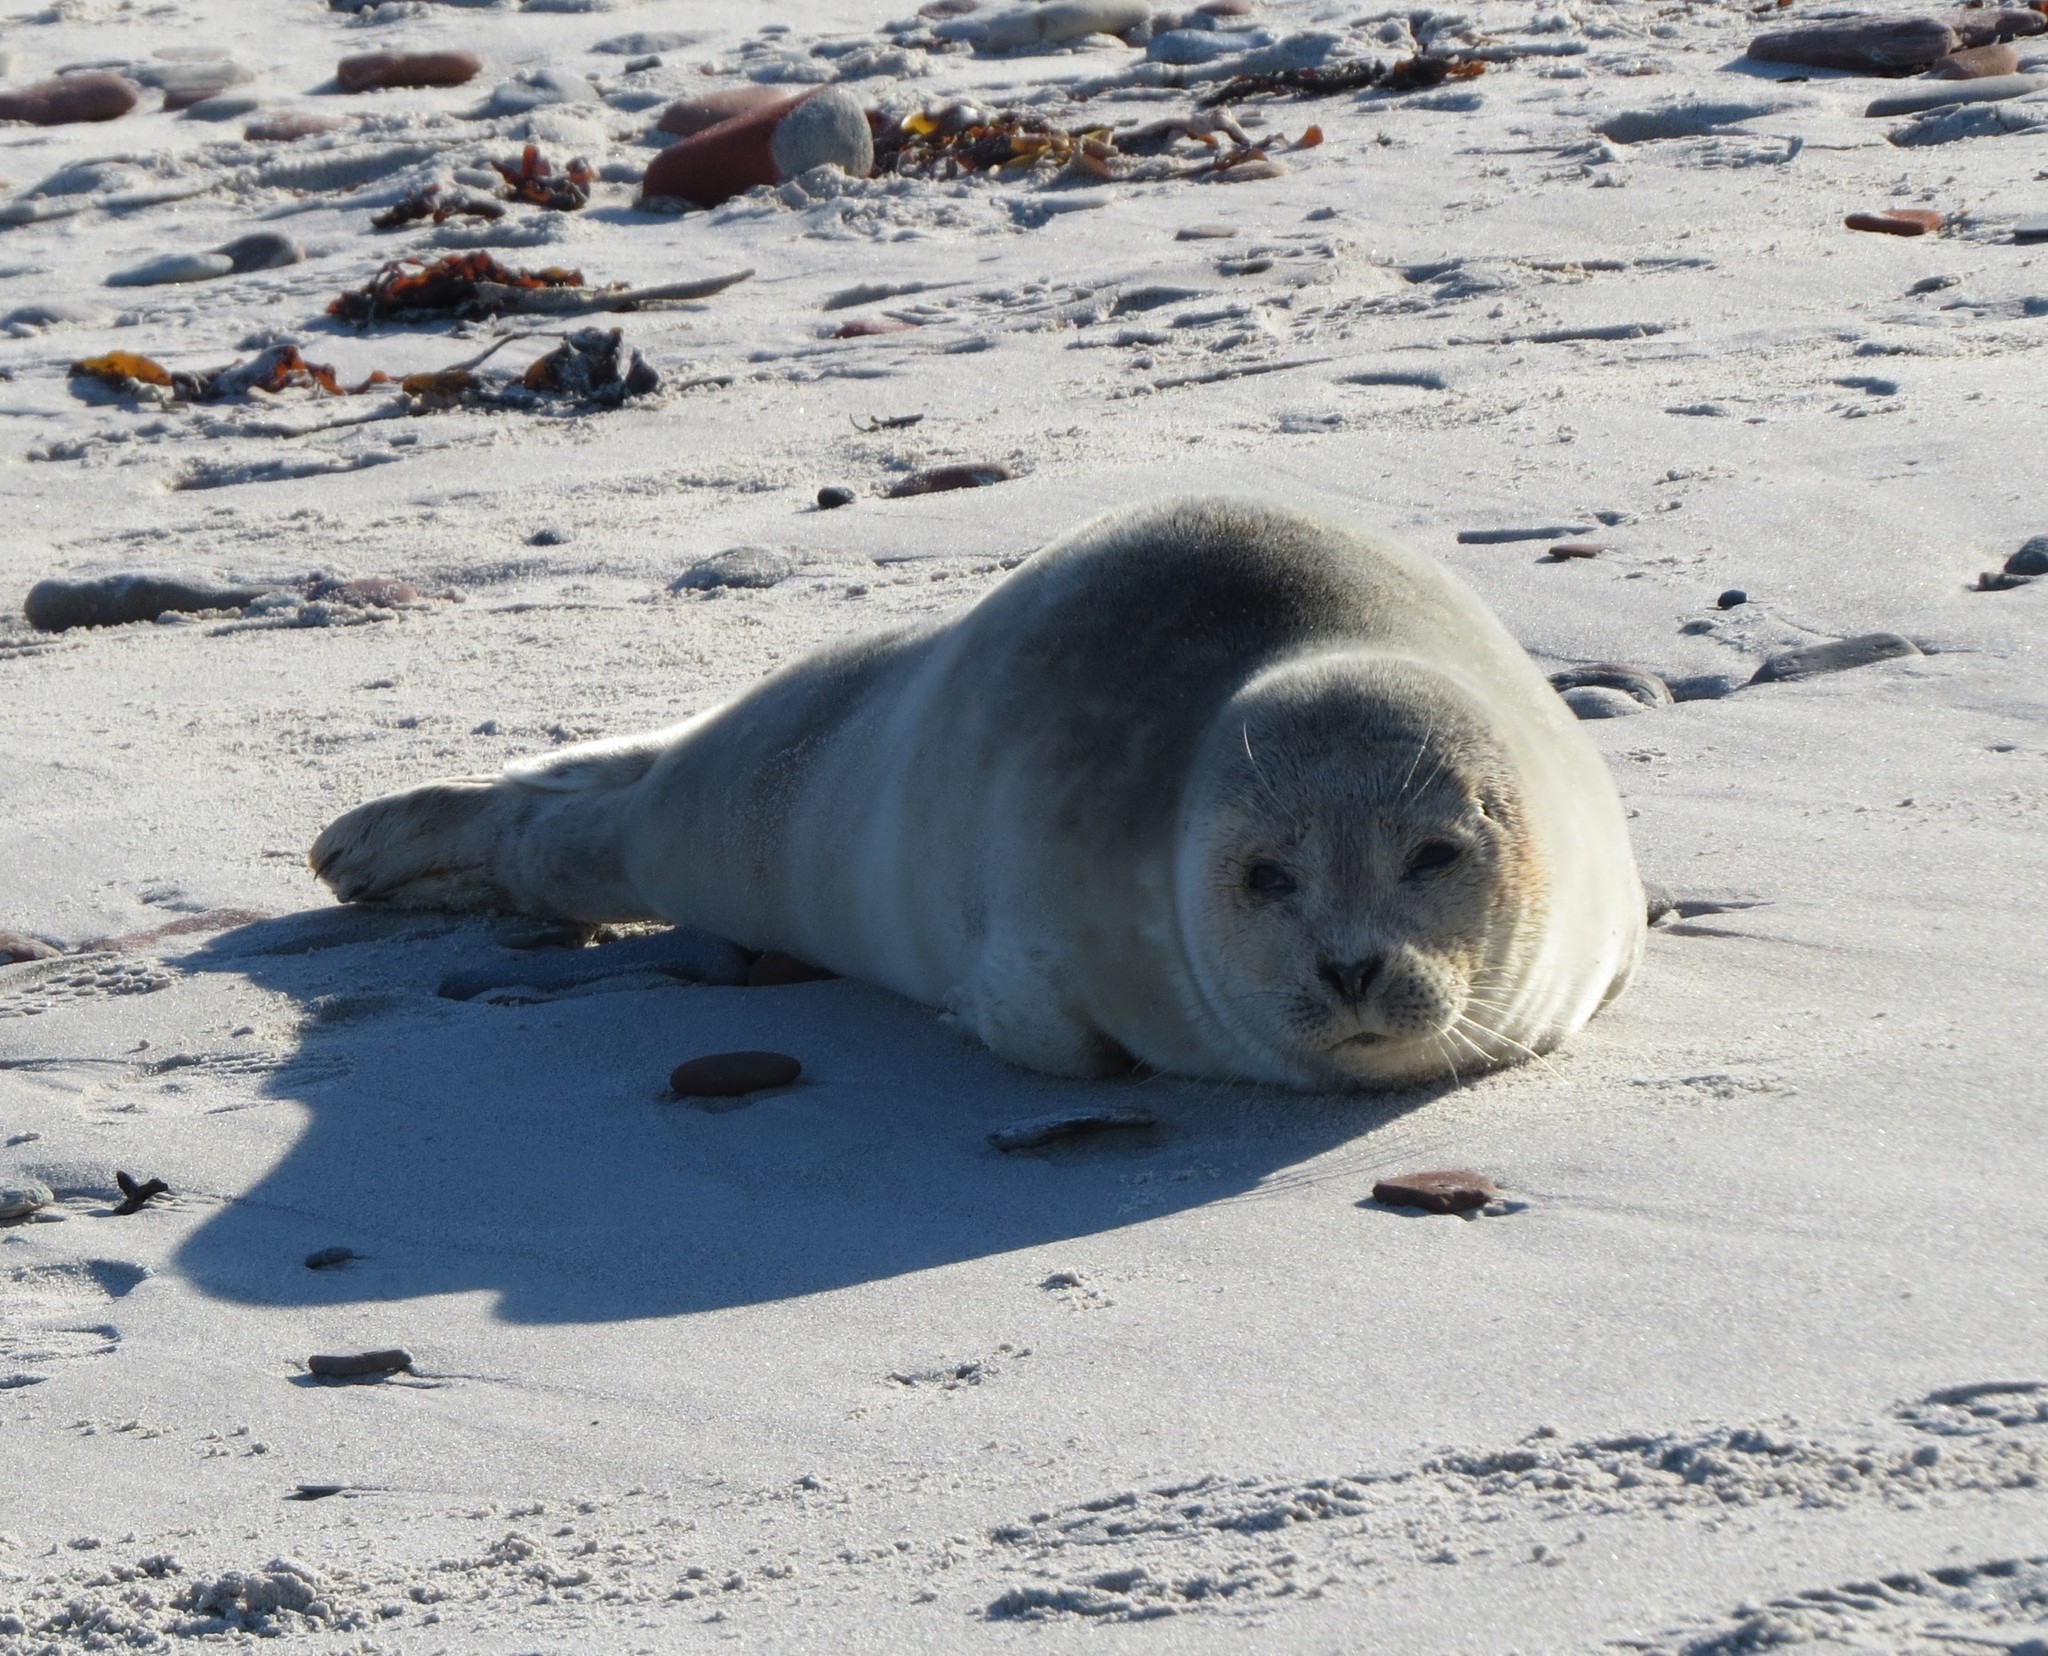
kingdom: Animalia
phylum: Chordata
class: Mammalia
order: Carnivora
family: Phocidae
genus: Phoca
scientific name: Phoca vitulina
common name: Harbor seal
